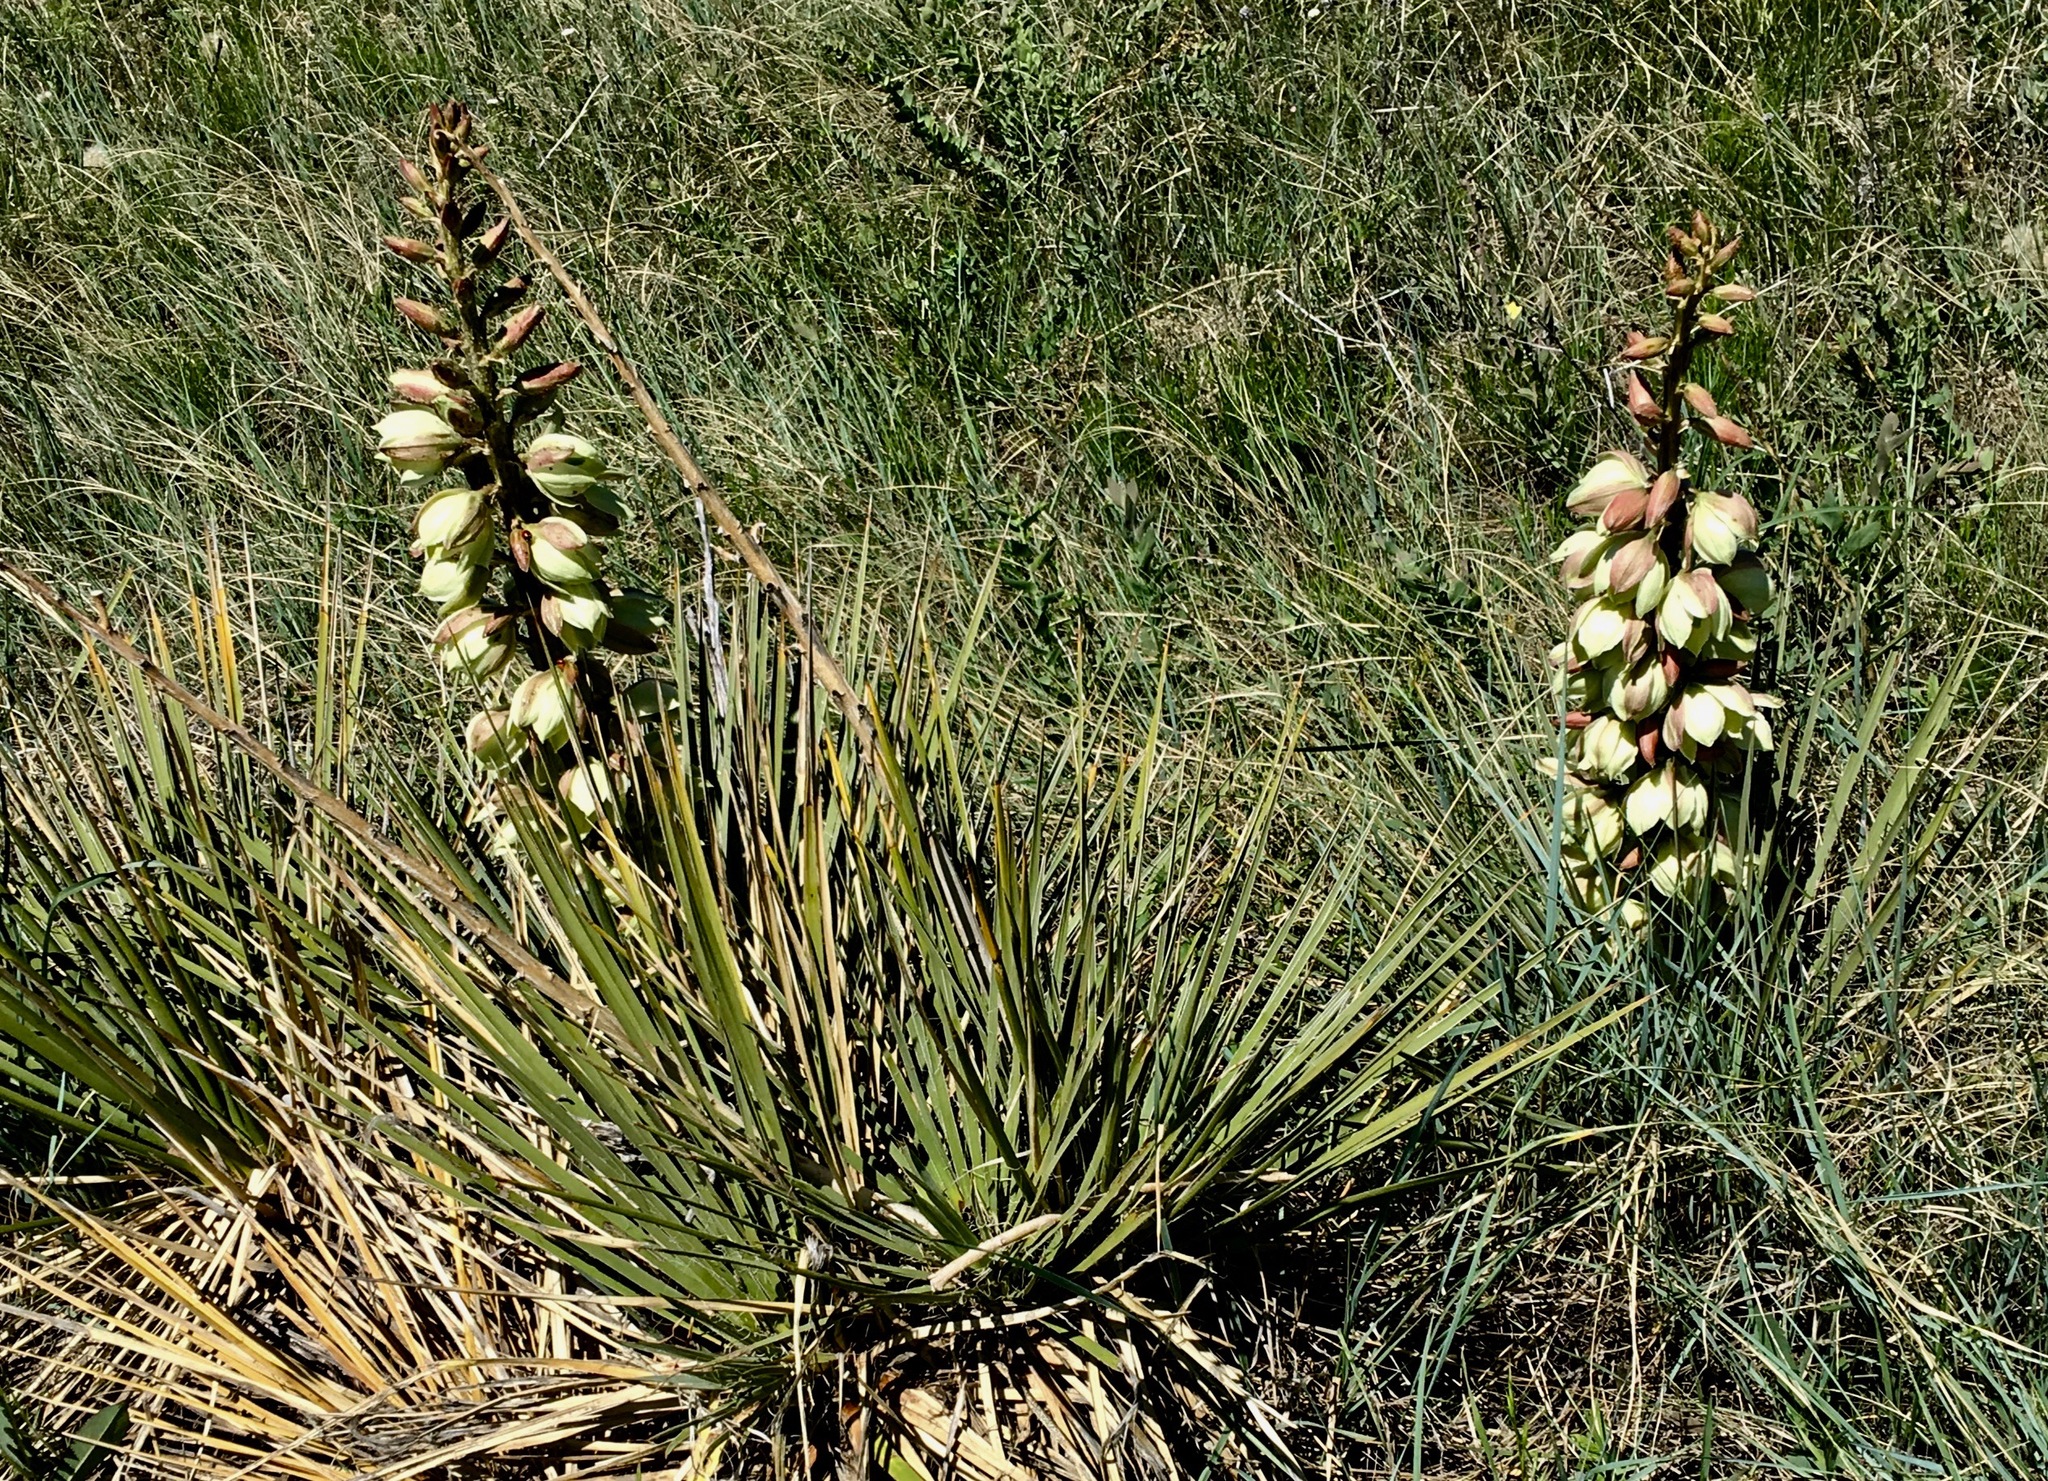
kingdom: Plantae
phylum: Tracheophyta
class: Liliopsida
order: Asparagales
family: Asparagaceae
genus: Yucca
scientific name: Yucca glauca
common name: Great plains yucca
